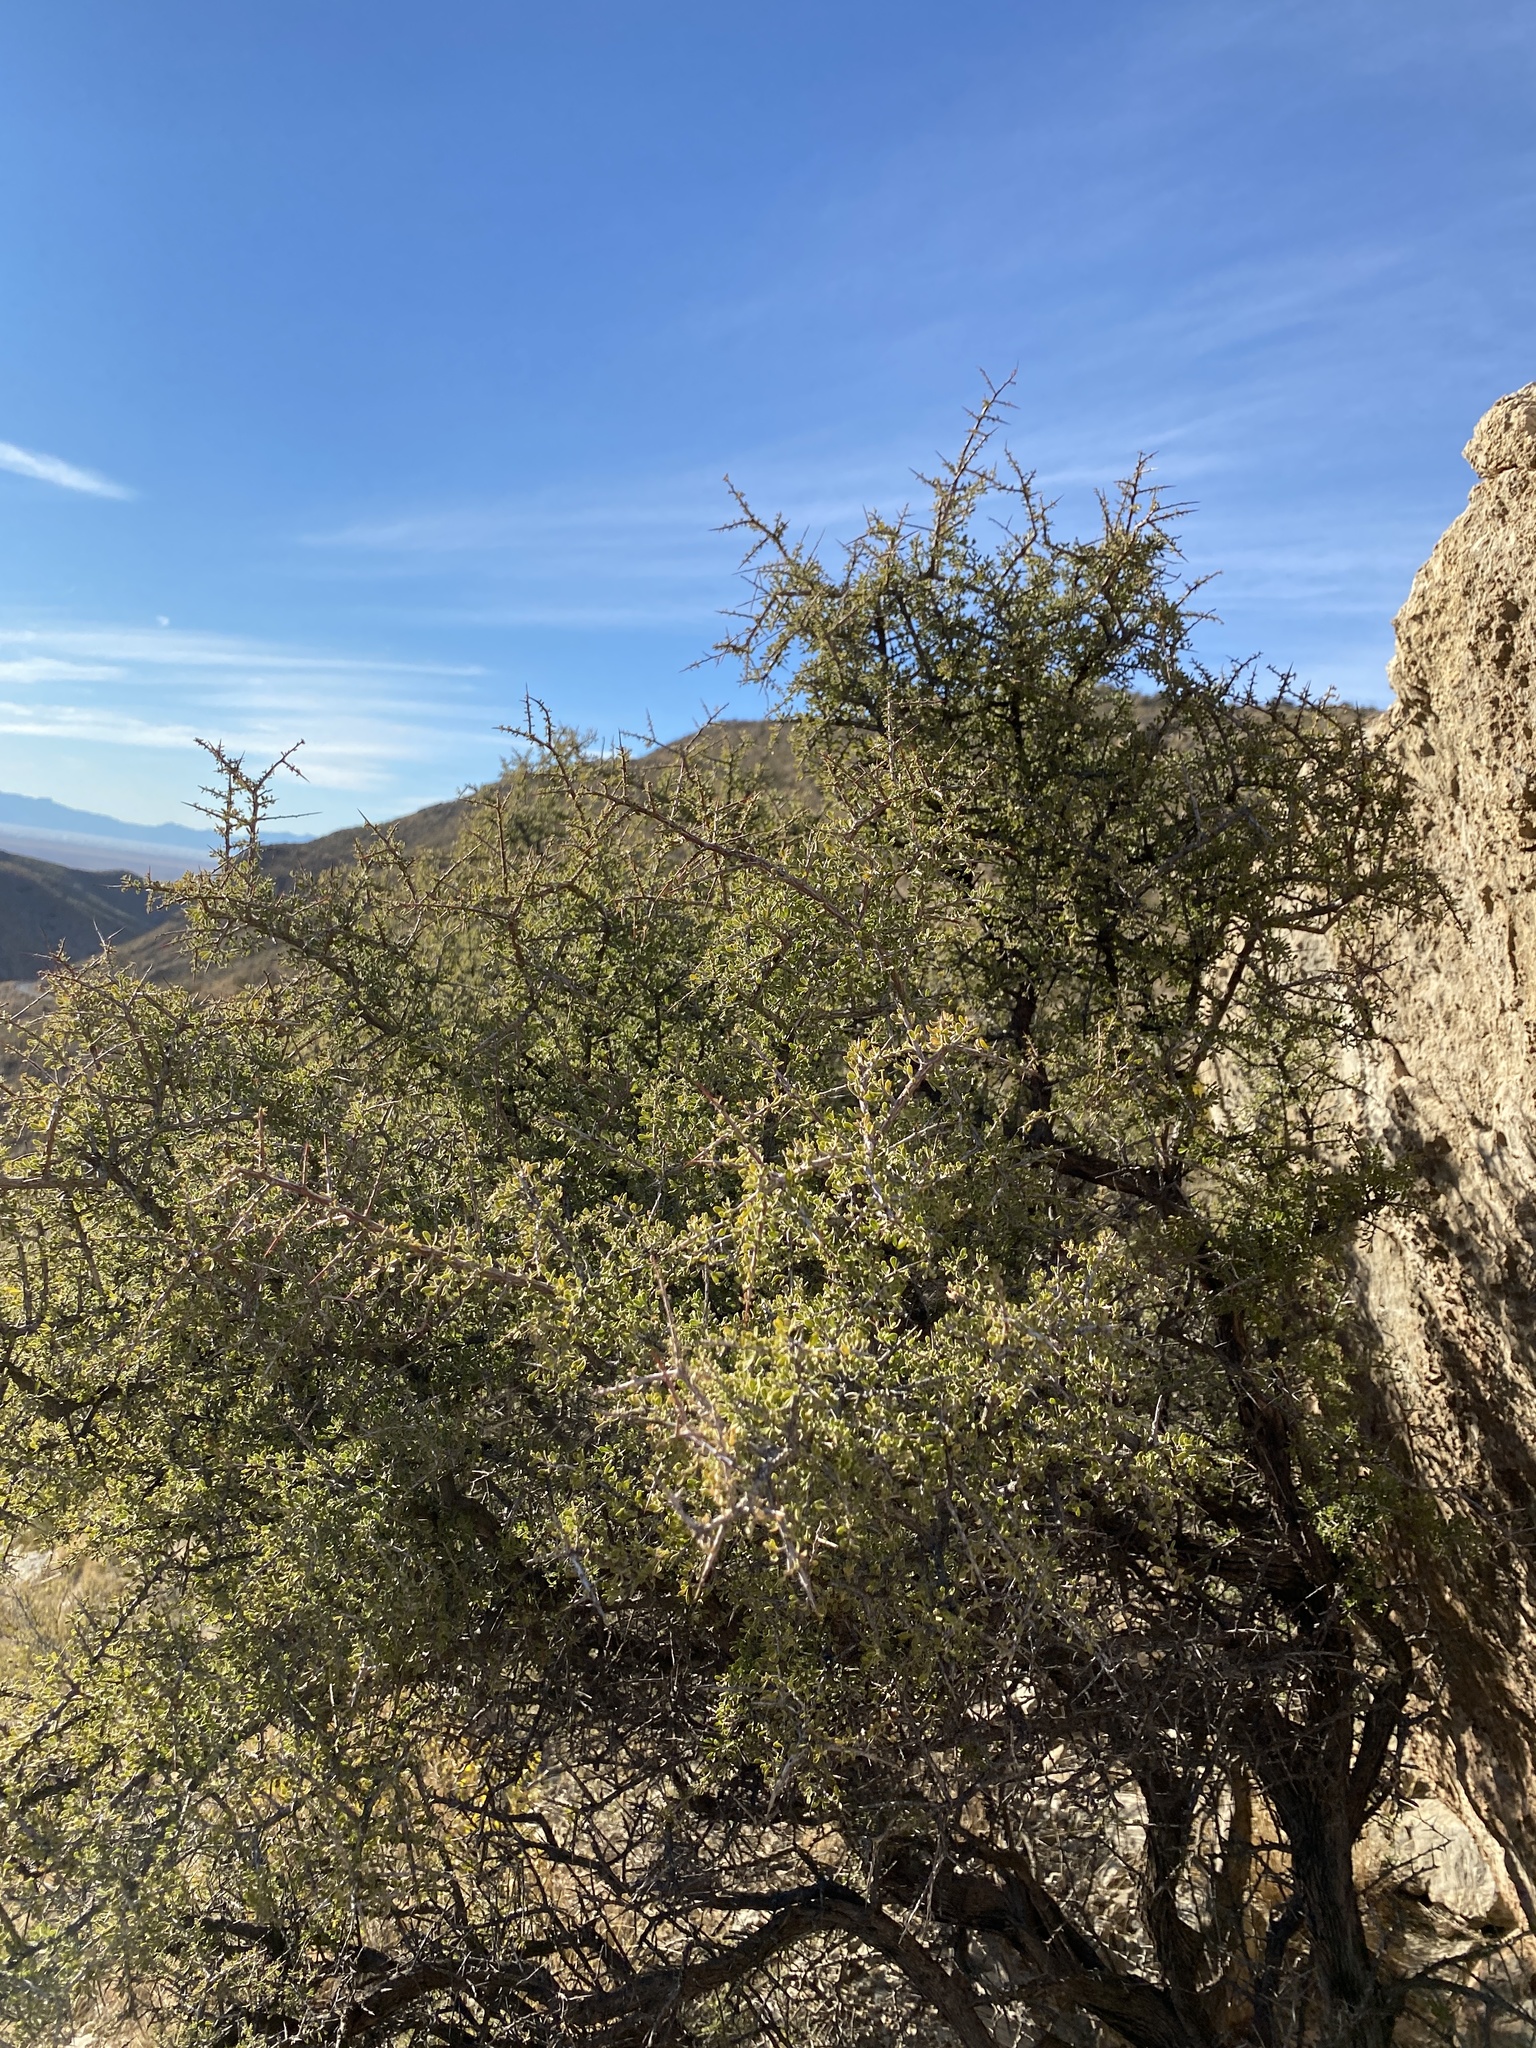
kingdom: Plantae
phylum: Tracheophyta
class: Magnoliopsida
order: Rosales
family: Rhamnaceae
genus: Condalia
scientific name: Condalia warnockii
